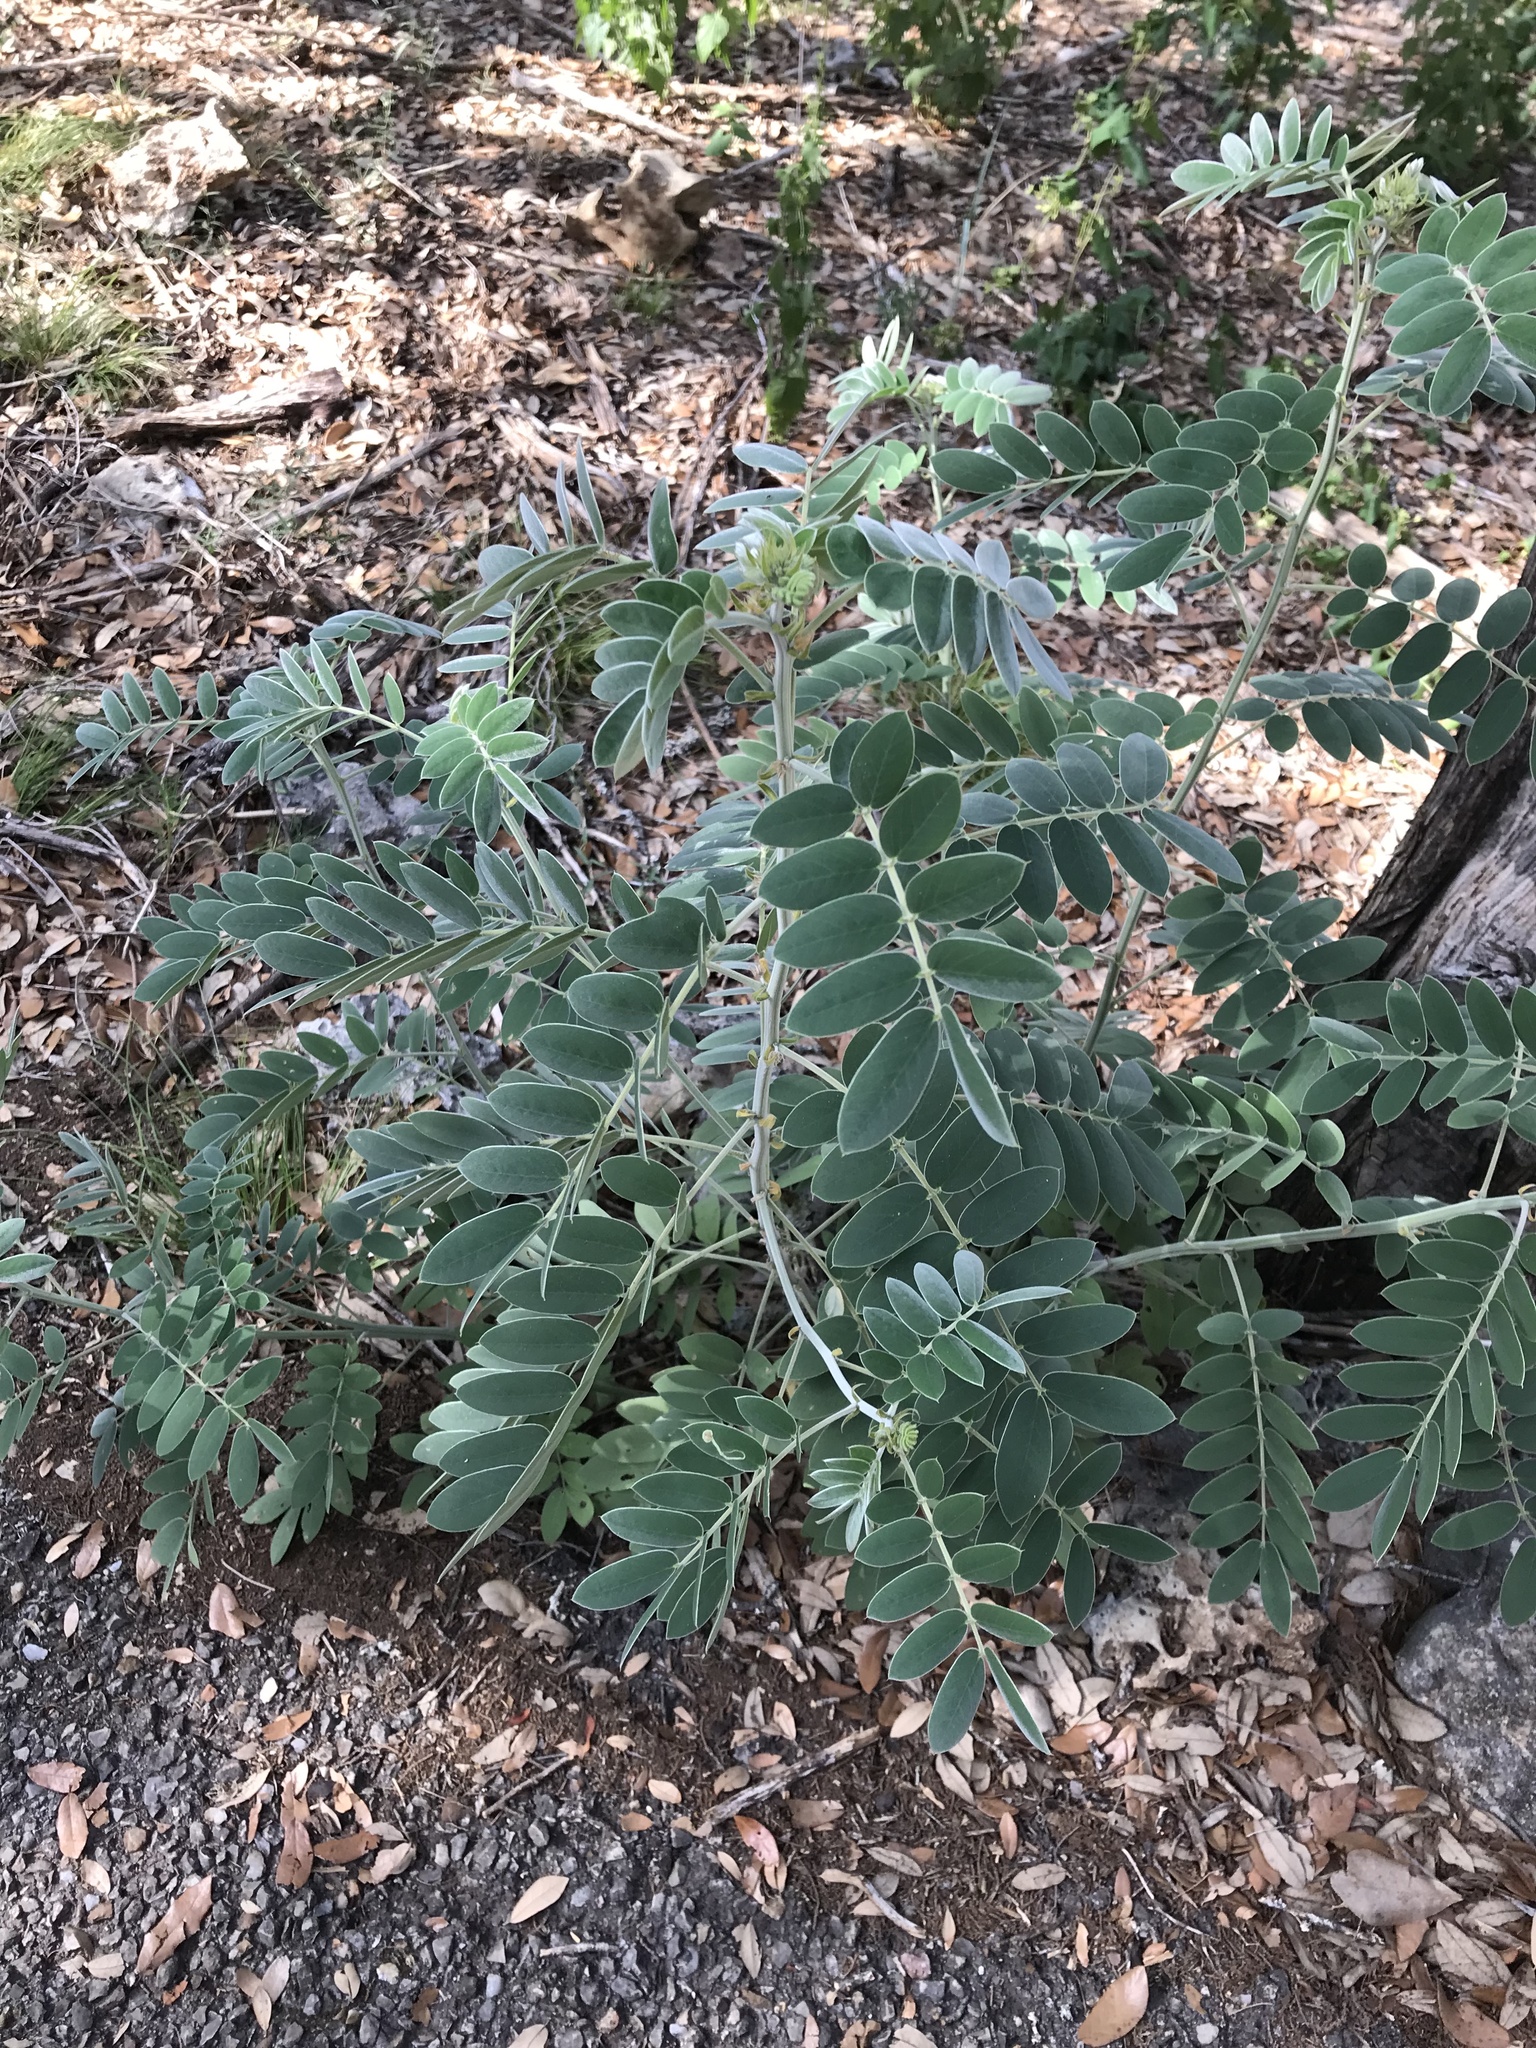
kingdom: Plantae
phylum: Tracheophyta
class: Magnoliopsida
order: Fabales
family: Fabaceae
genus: Senna
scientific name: Senna lindheimeriana
